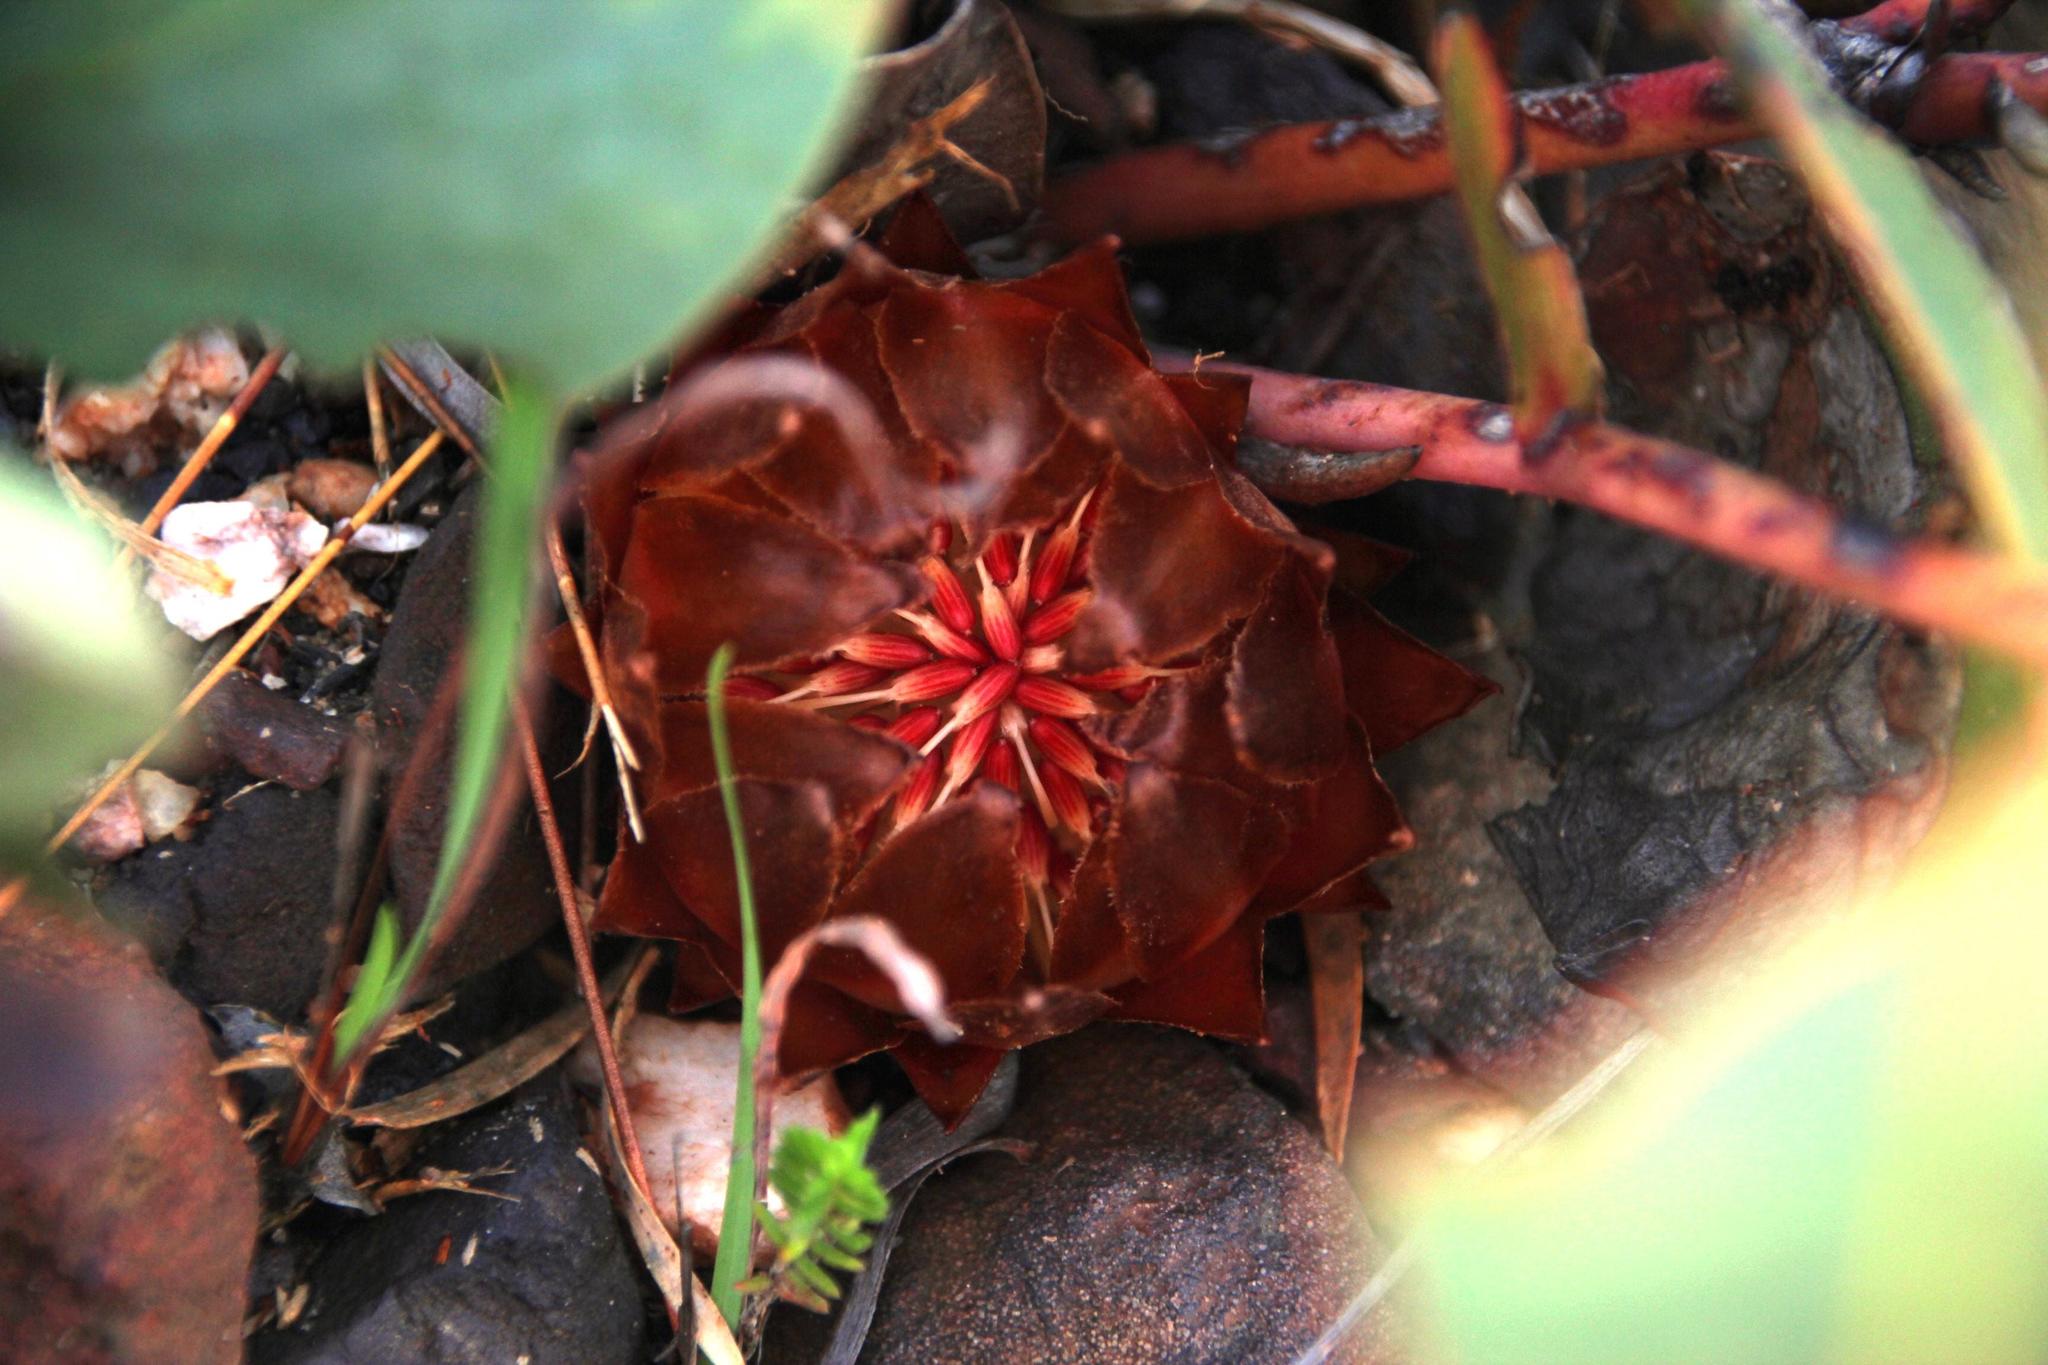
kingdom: Plantae
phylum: Tracheophyta
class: Magnoliopsida
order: Proteales
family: Proteaceae
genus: Protea
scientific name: Protea cordata
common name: Heart-leaf sugarbush
